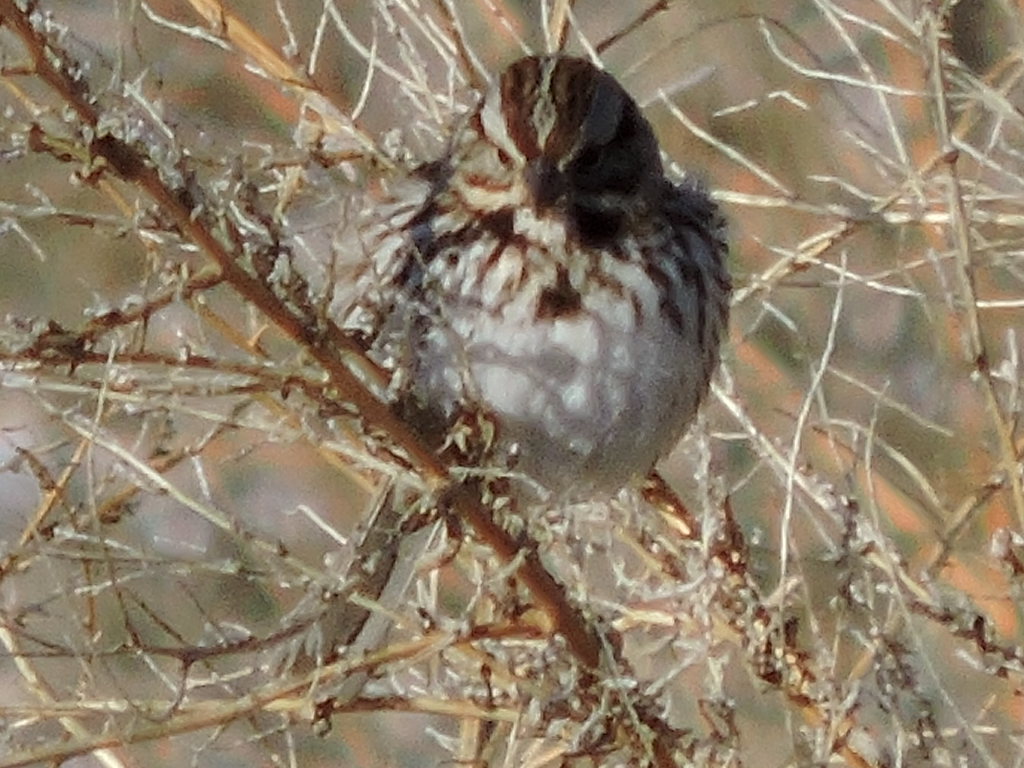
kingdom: Animalia
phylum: Chordata
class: Aves
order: Passeriformes
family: Passerellidae
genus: Melospiza
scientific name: Melospiza melodia
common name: Song sparrow
